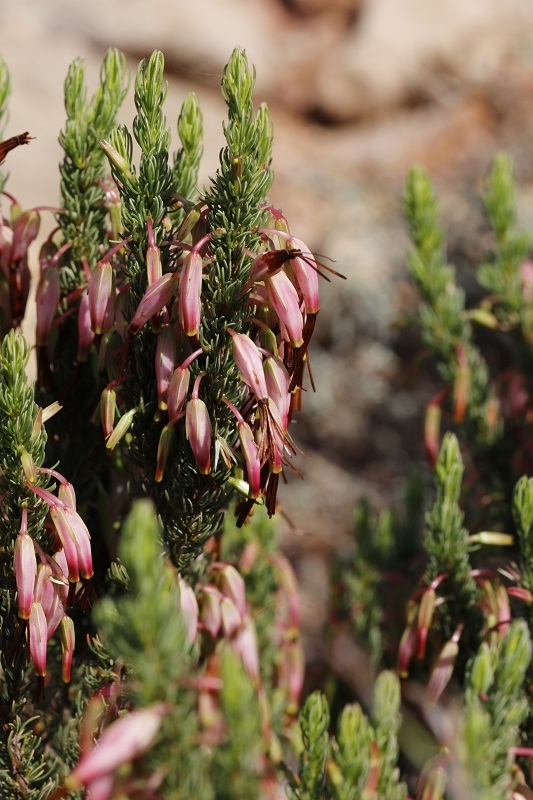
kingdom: Plantae
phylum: Tracheophyta
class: Magnoliopsida
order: Ericales
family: Ericaceae
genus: Erica
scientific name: Erica plukenetii
